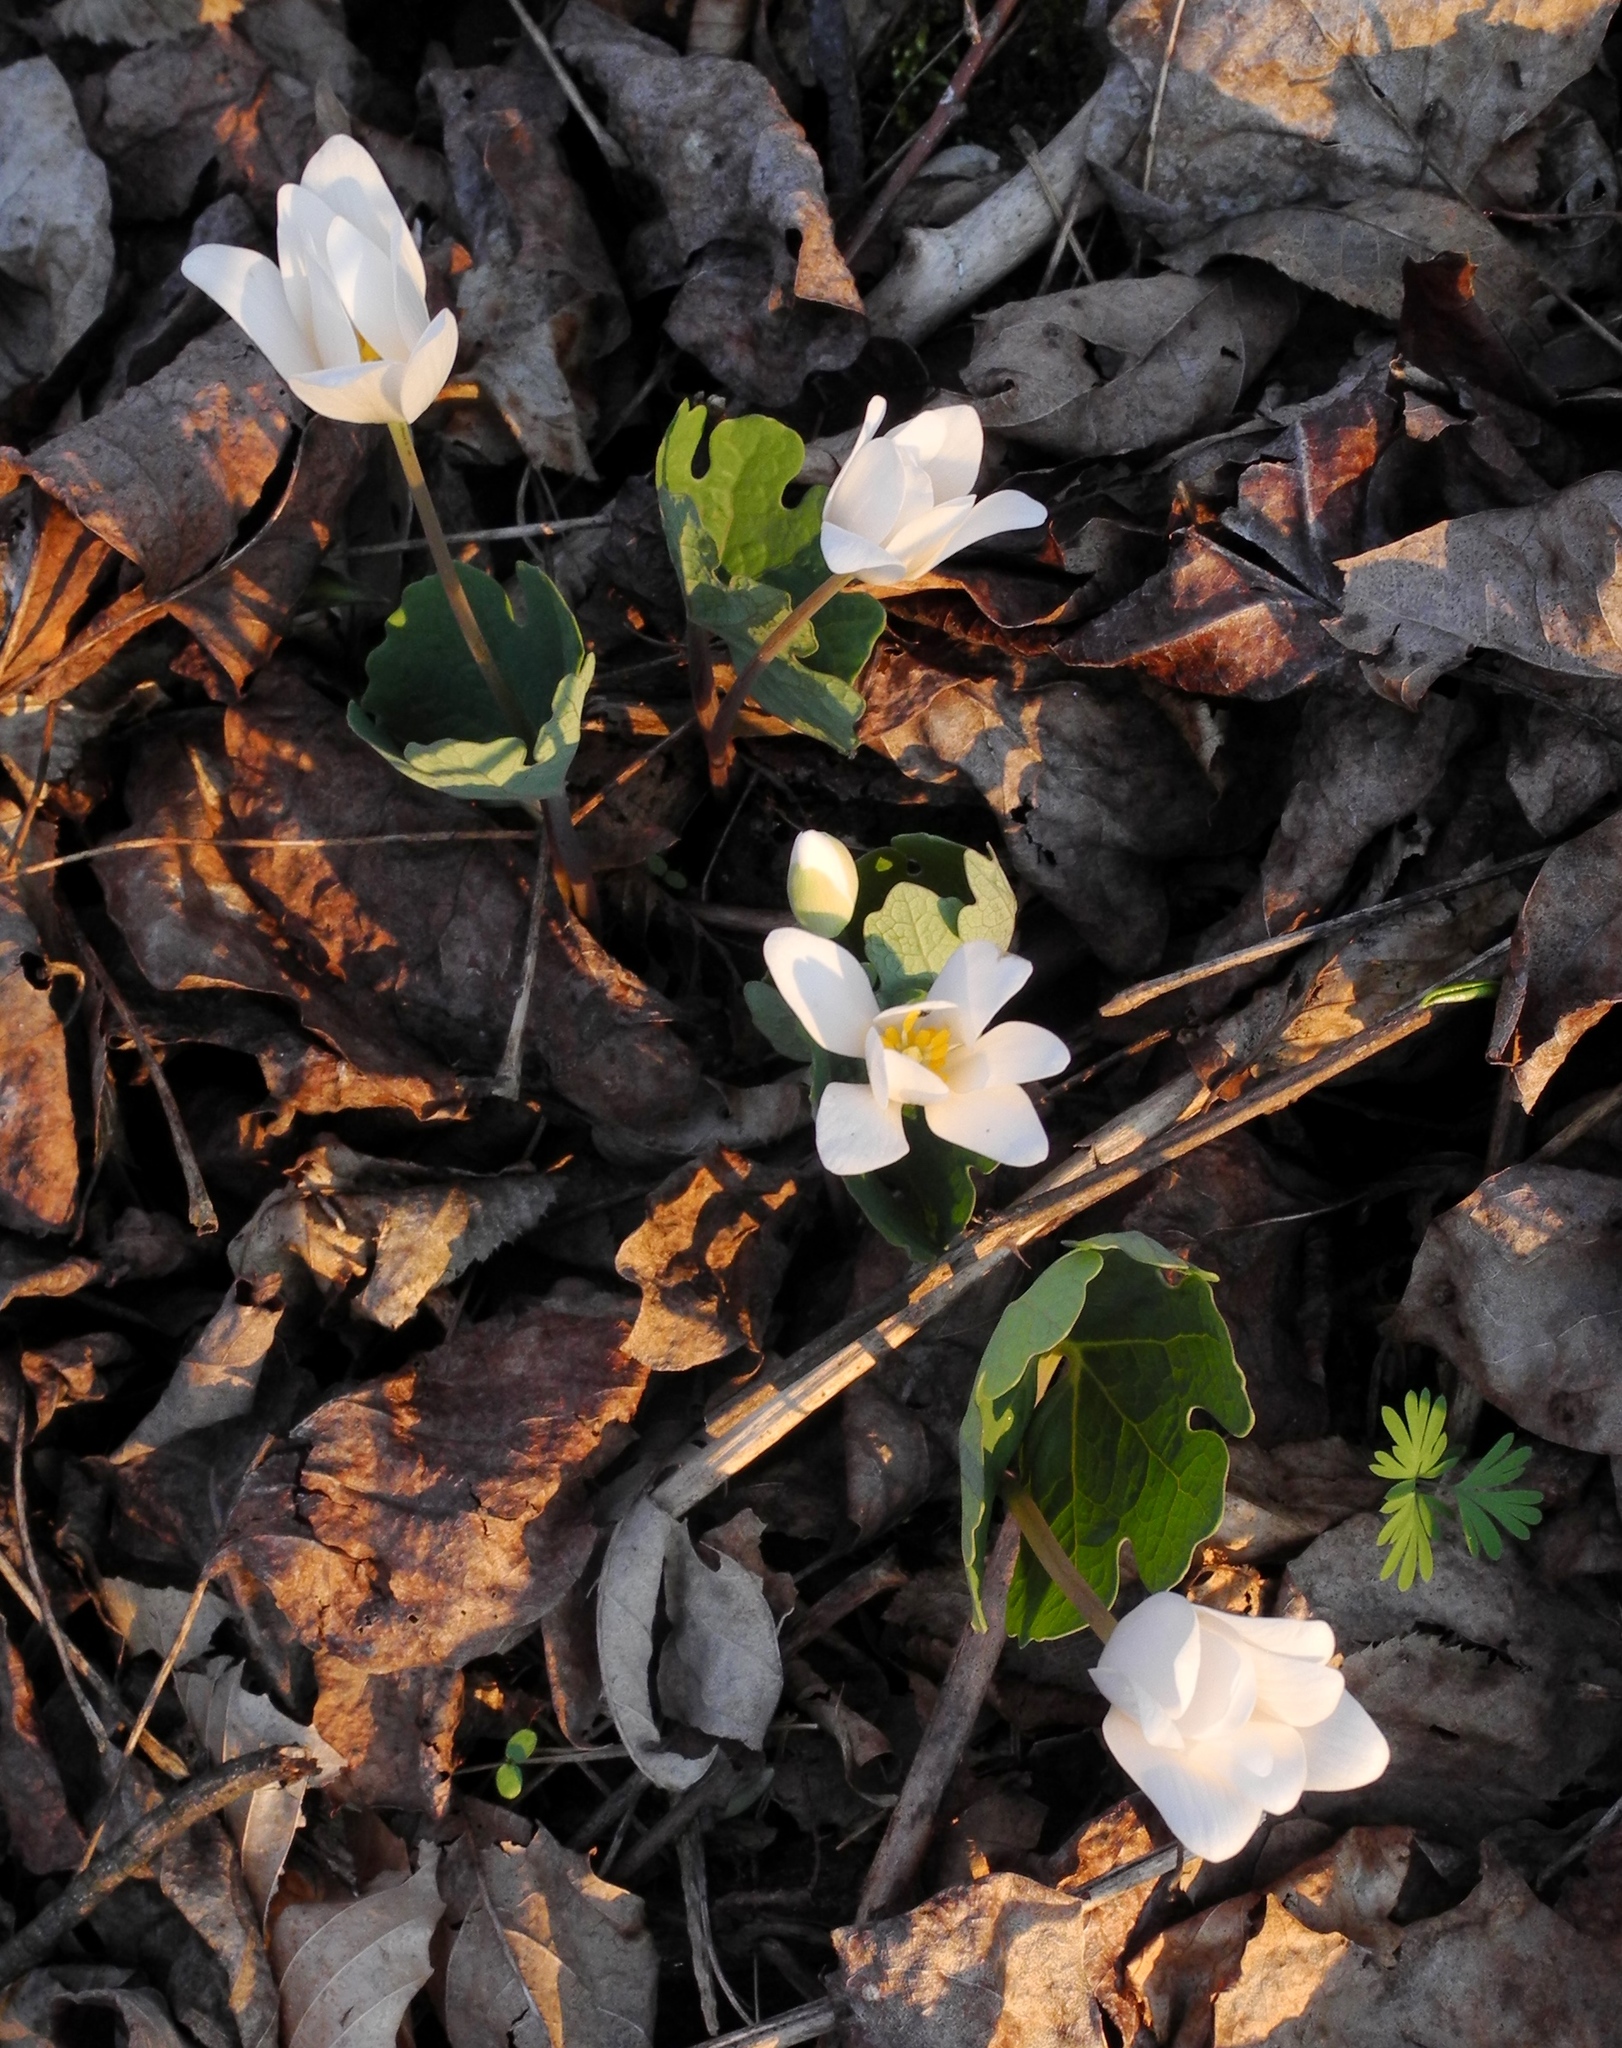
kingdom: Plantae
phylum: Tracheophyta
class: Magnoliopsida
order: Ranunculales
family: Papaveraceae
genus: Sanguinaria
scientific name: Sanguinaria canadensis
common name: Bloodroot
